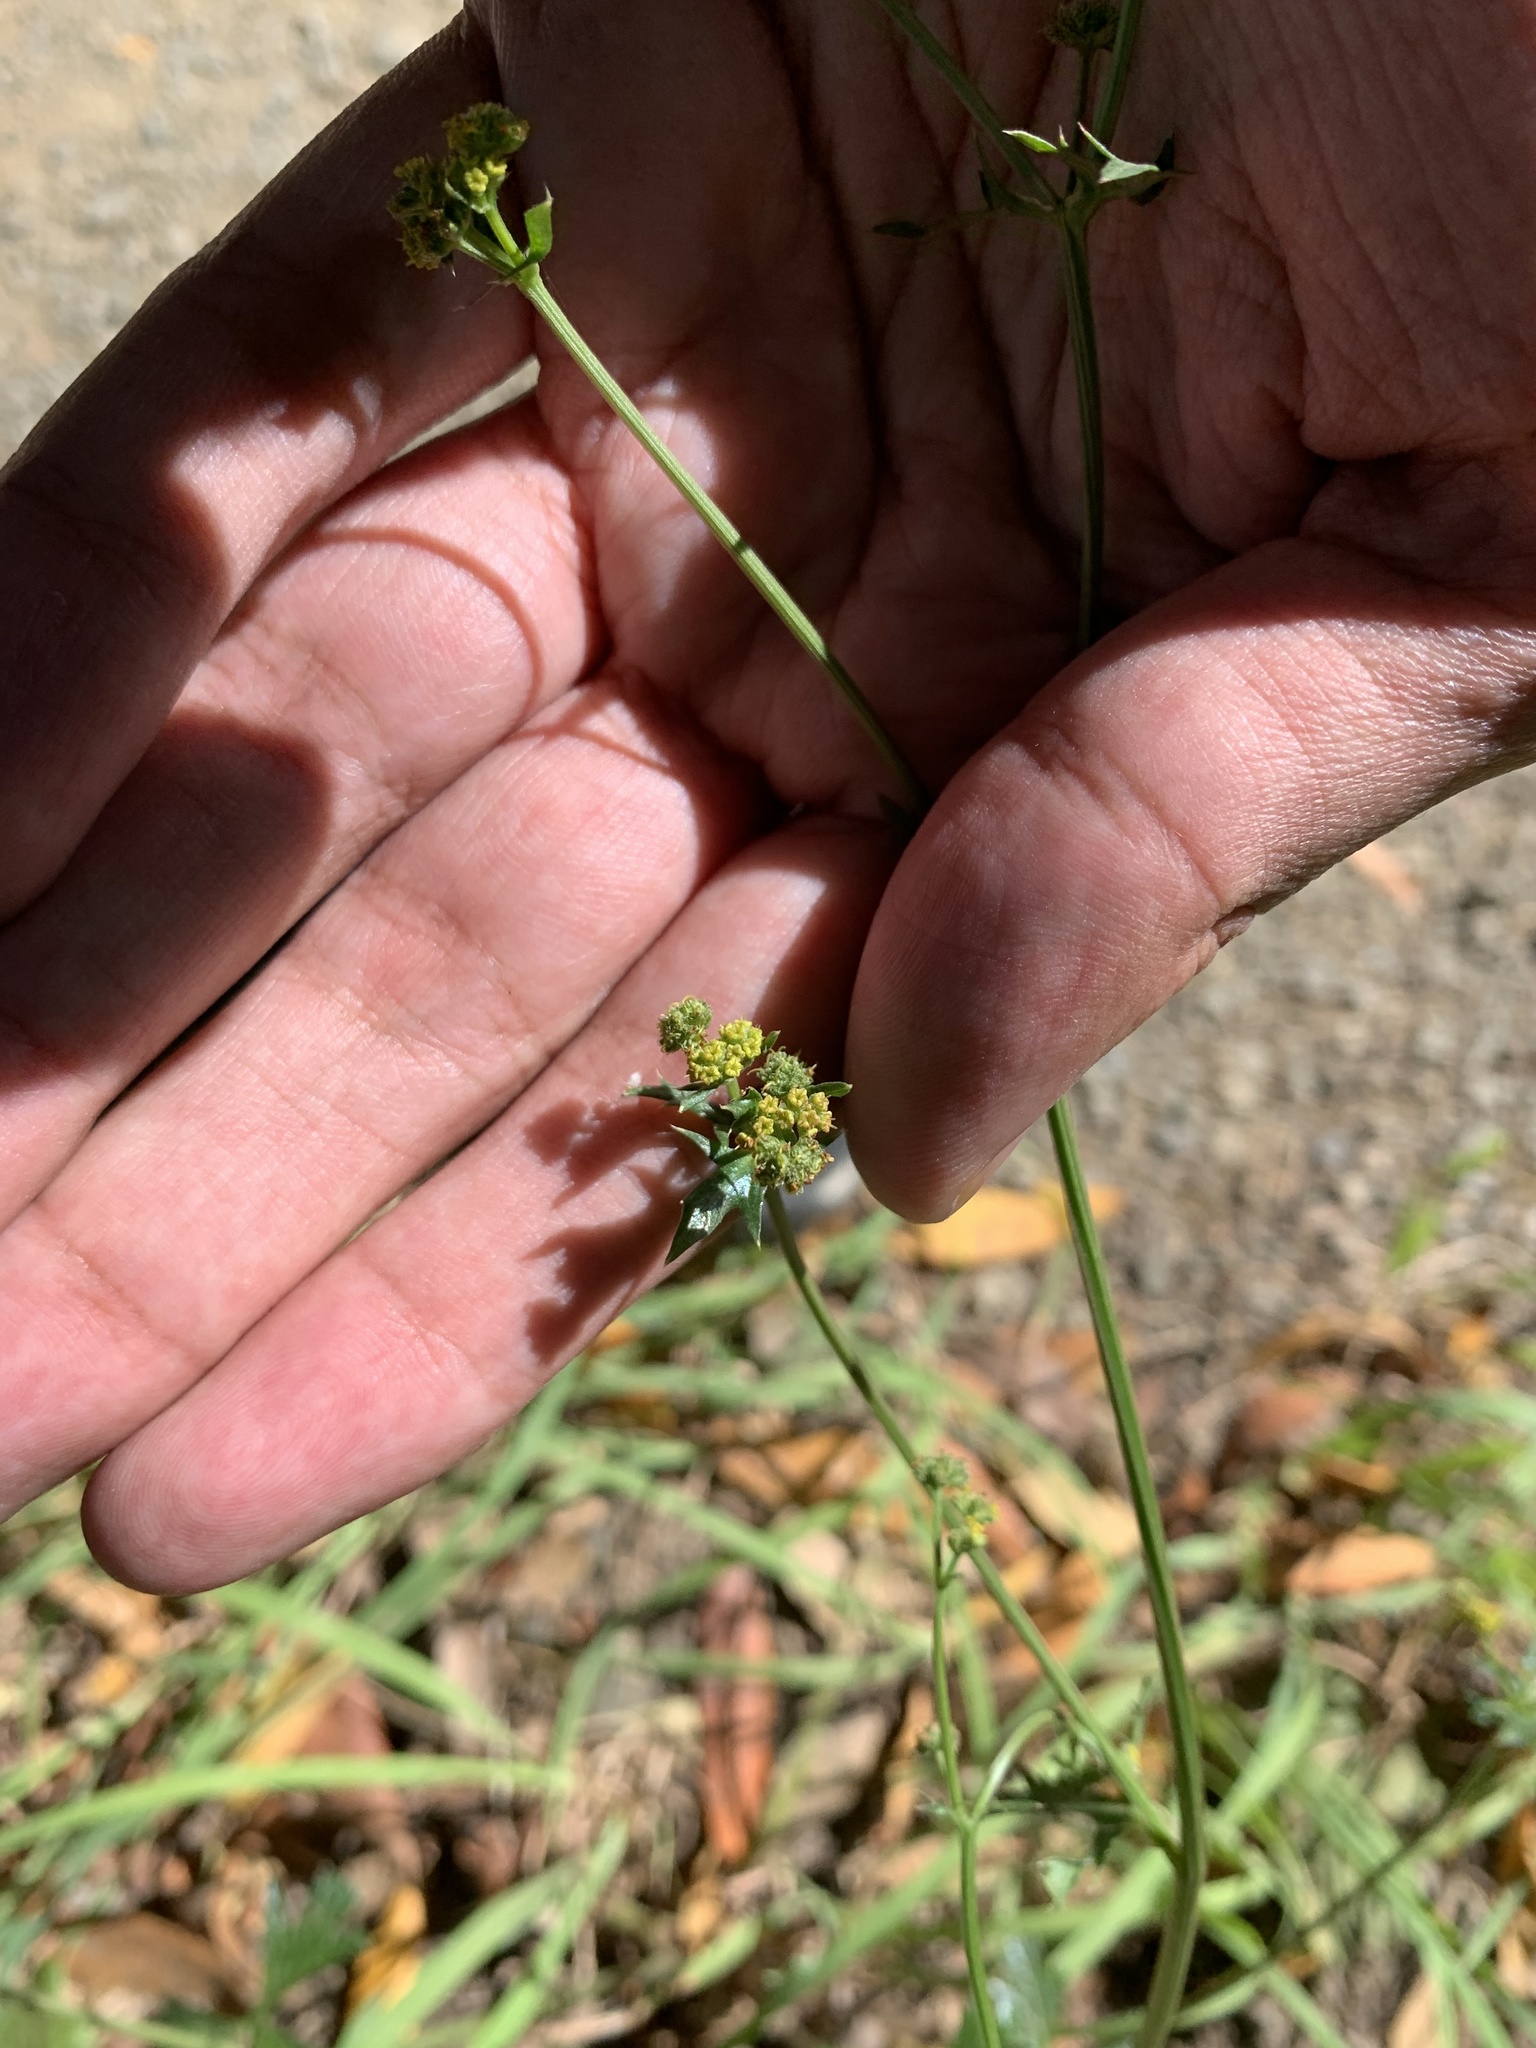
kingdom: Plantae
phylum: Tracheophyta
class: Magnoliopsida
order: Apiales
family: Apiaceae
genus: Sanicula
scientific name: Sanicula crassicaulis
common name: Western snakeroot
